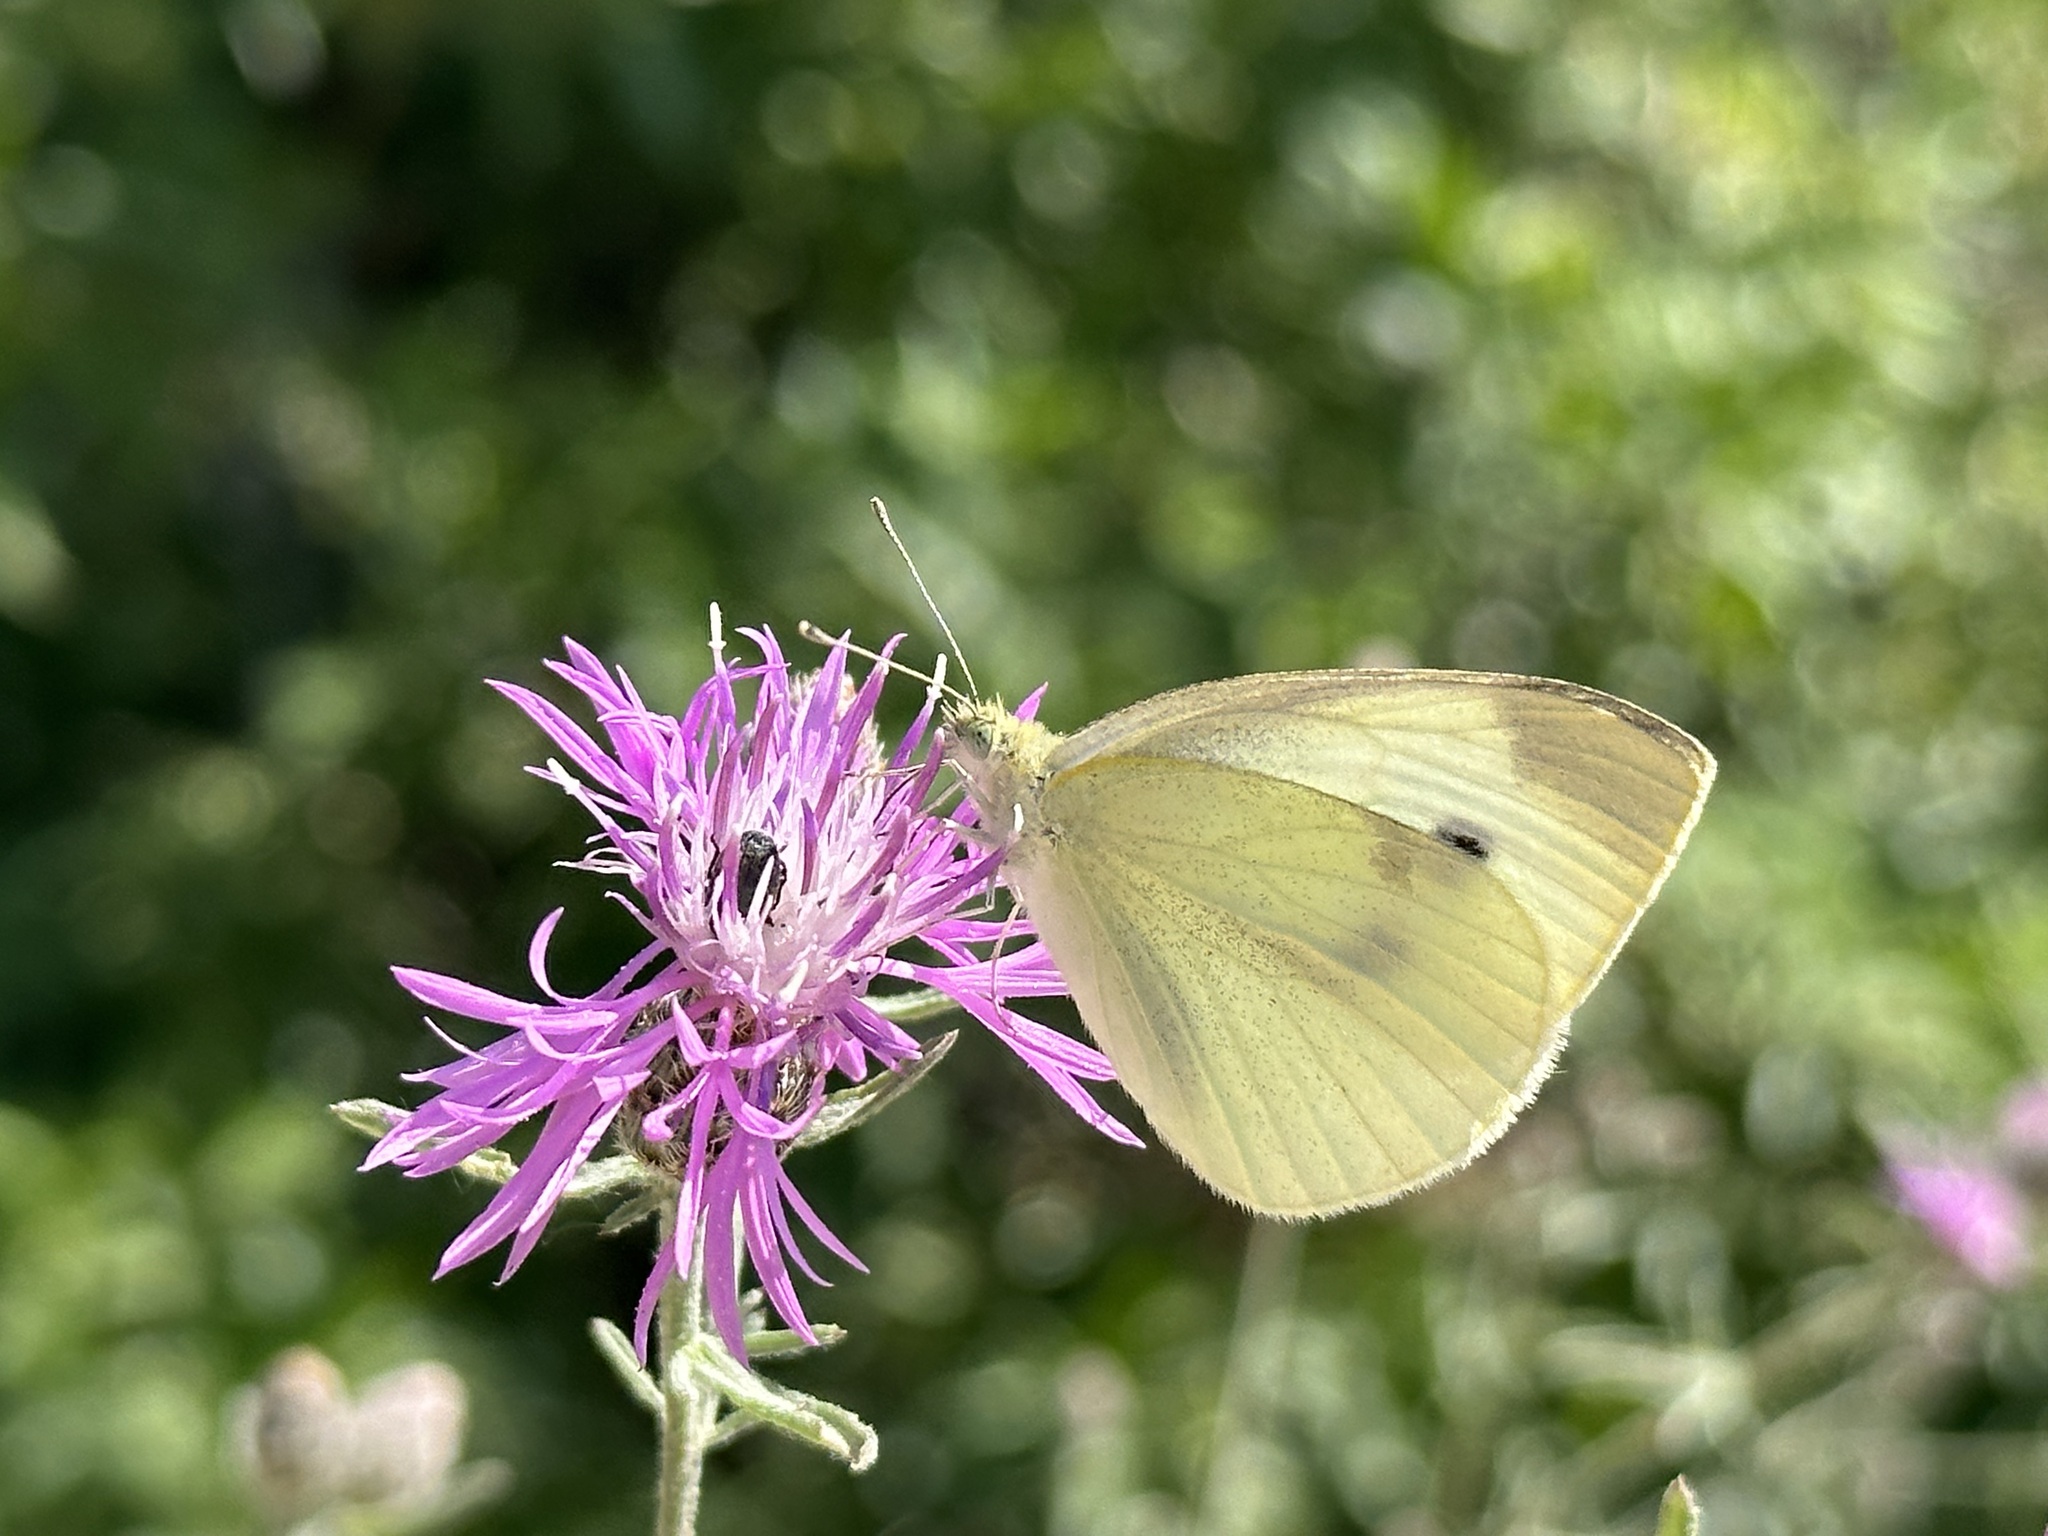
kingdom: Animalia
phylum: Arthropoda
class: Insecta
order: Lepidoptera
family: Pieridae
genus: Pieris
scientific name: Pieris rapae
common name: Small white
